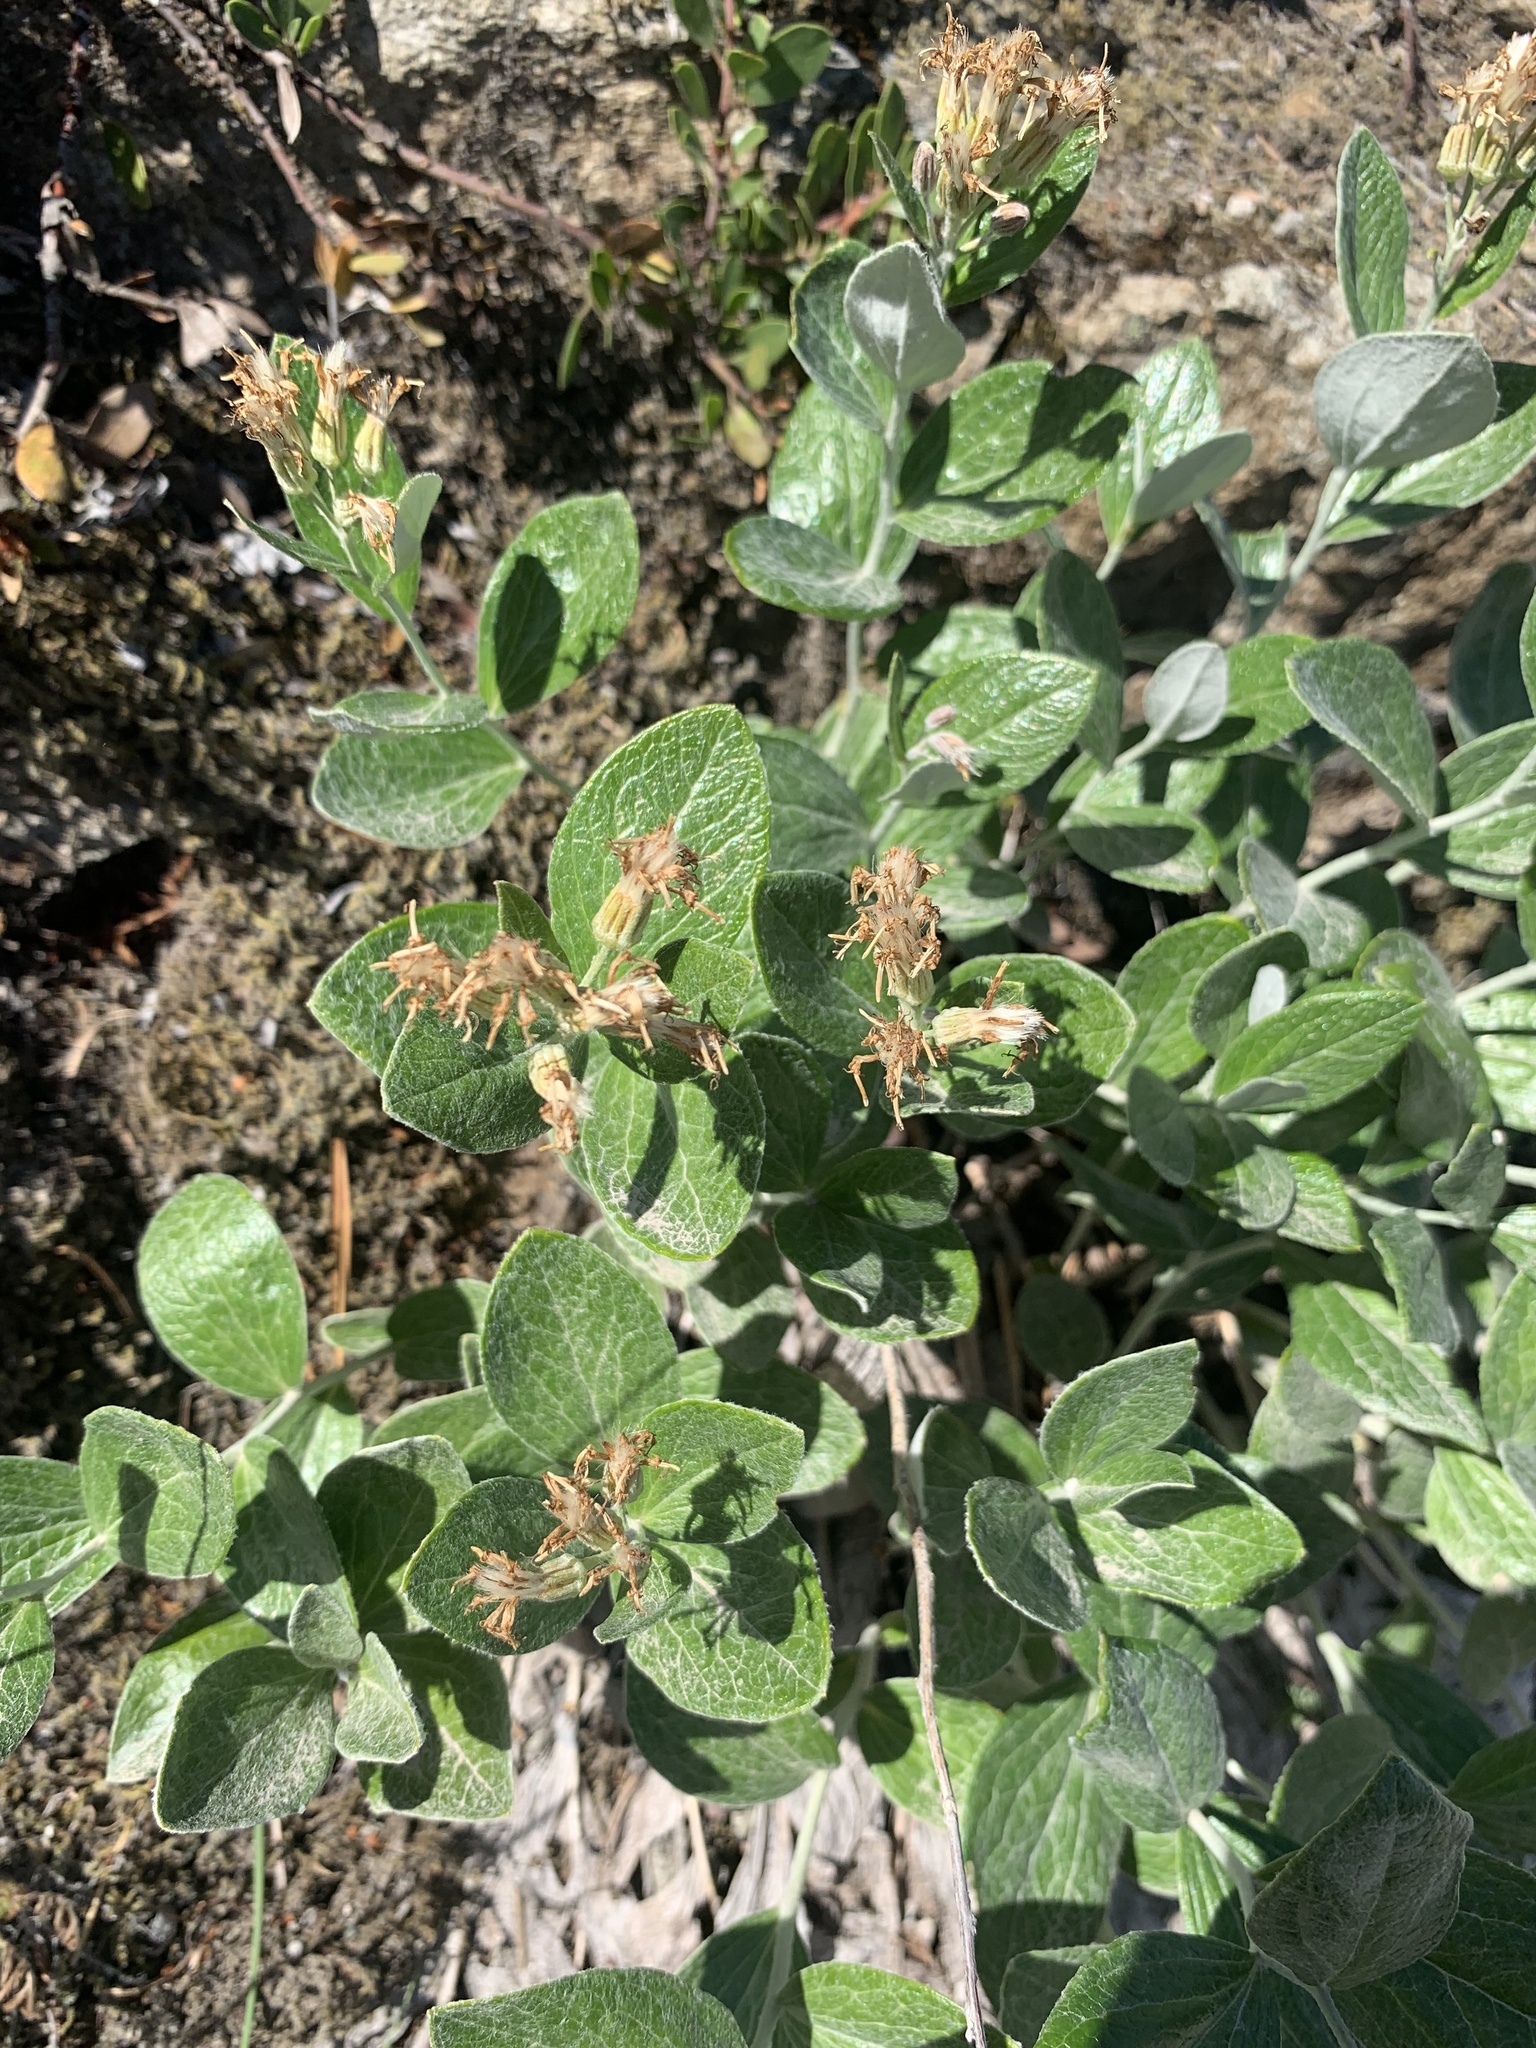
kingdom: Plantae
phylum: Tracheophyta
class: Magnoliopsida
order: Asterales
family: Asteraceae
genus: Luina
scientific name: Luina hypoleuca
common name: Little-leaved luina
